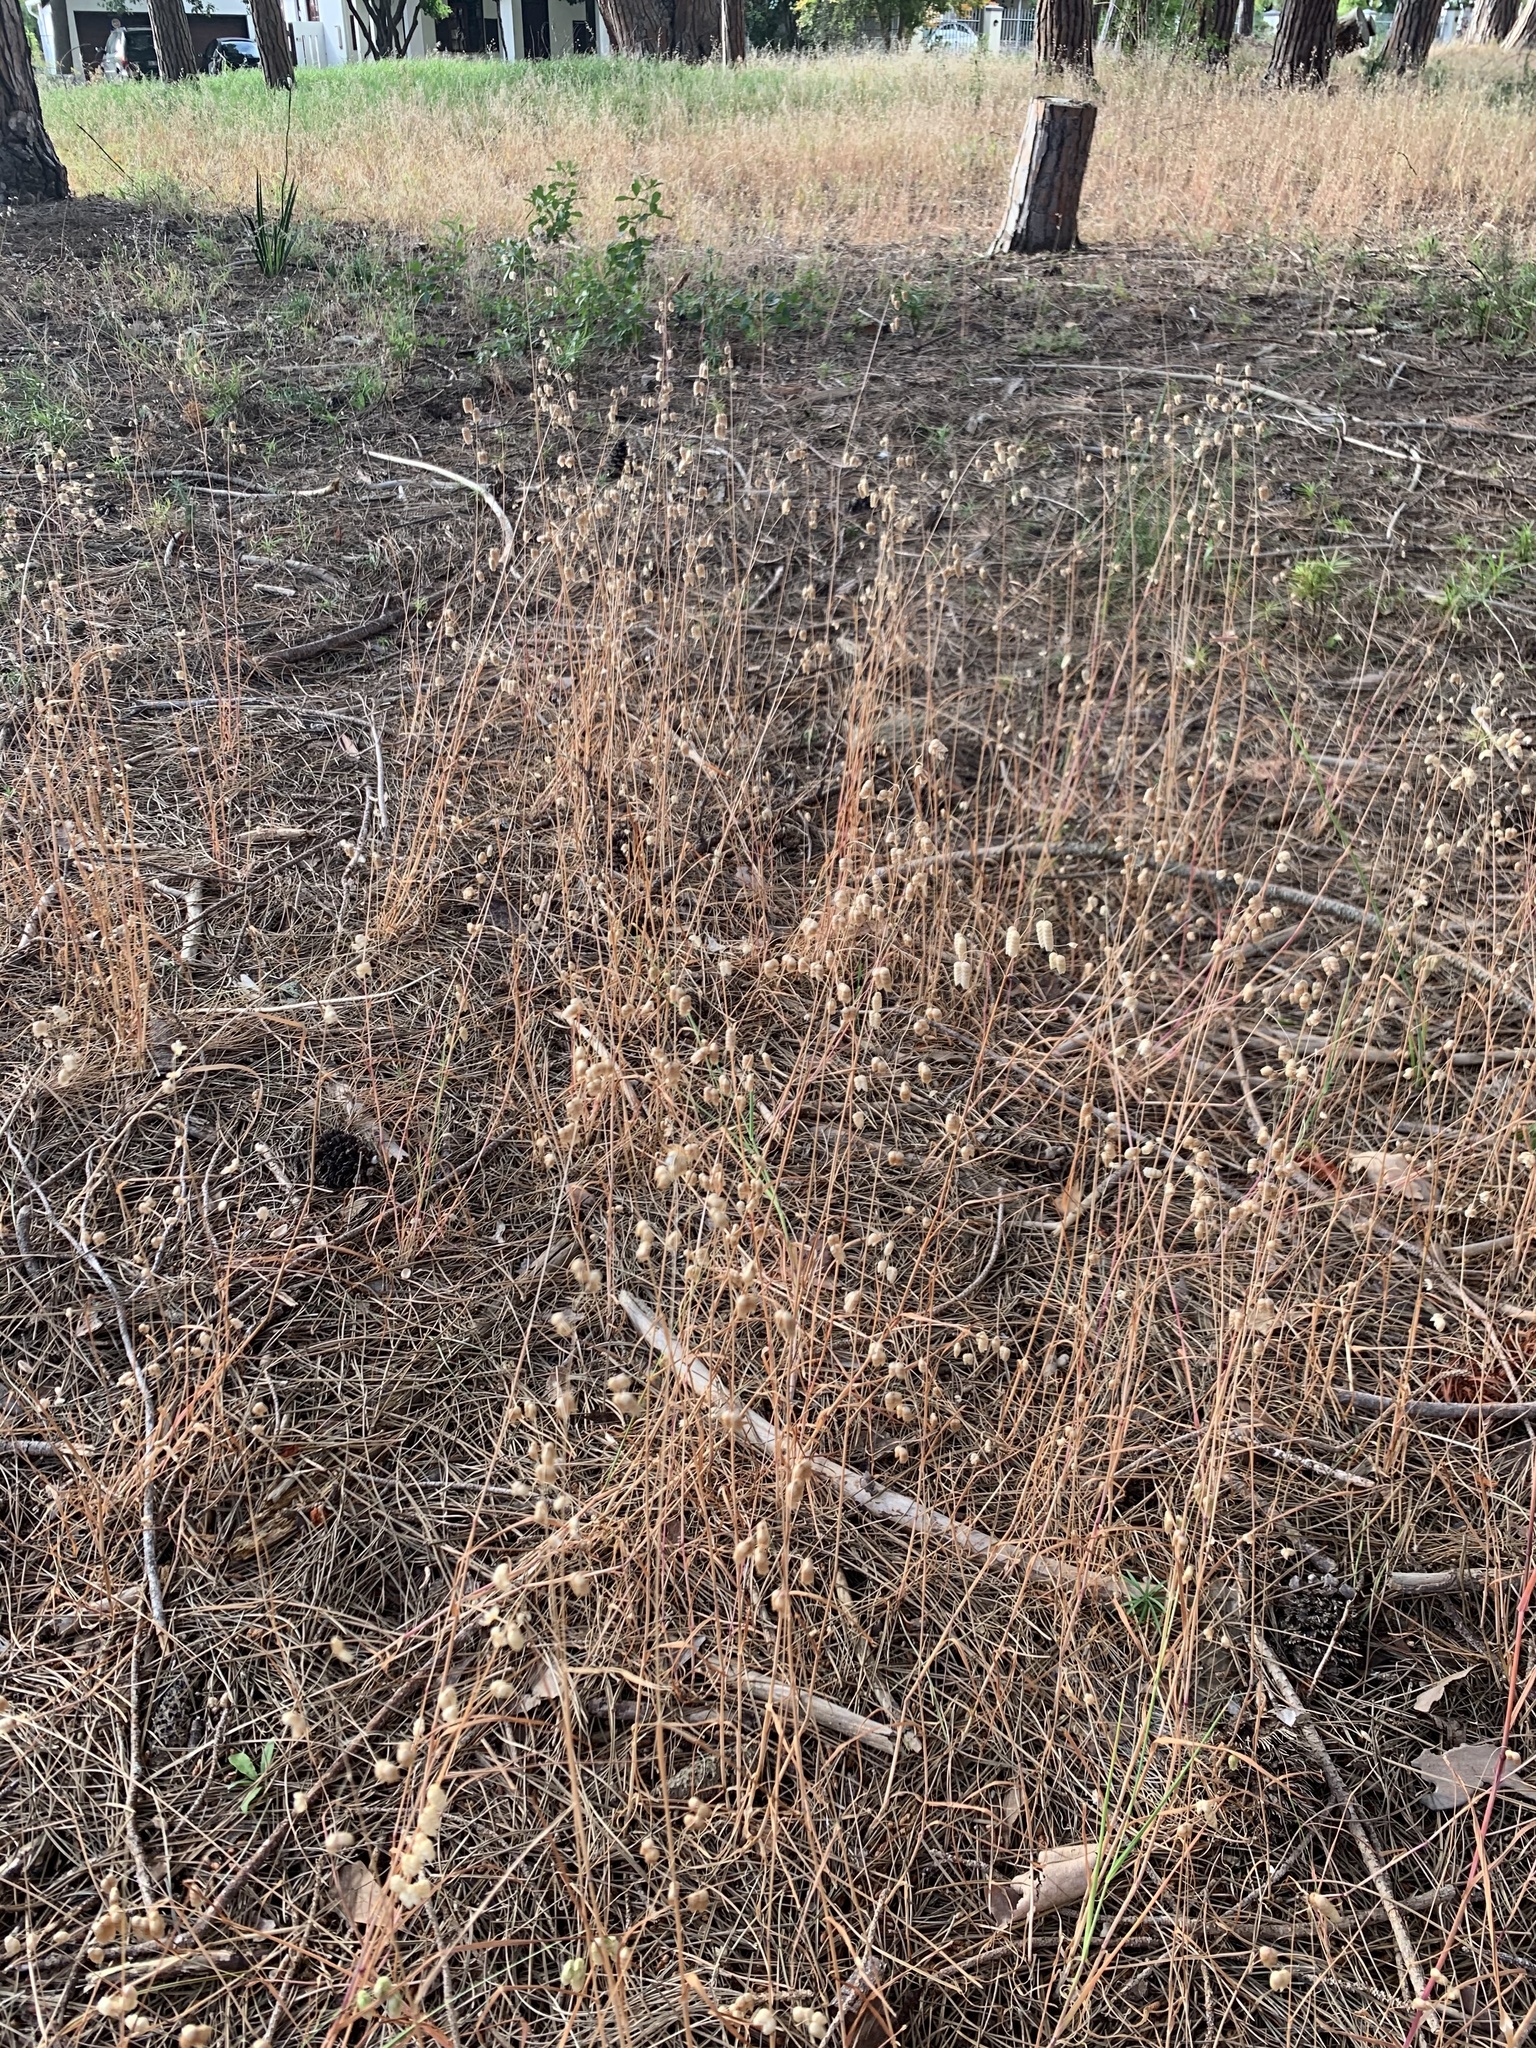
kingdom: Plantae
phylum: Tracheophyta
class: Liliopsida
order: Poales
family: Poaceae
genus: Briza
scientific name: Briza maxima
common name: Big quakinggrass
